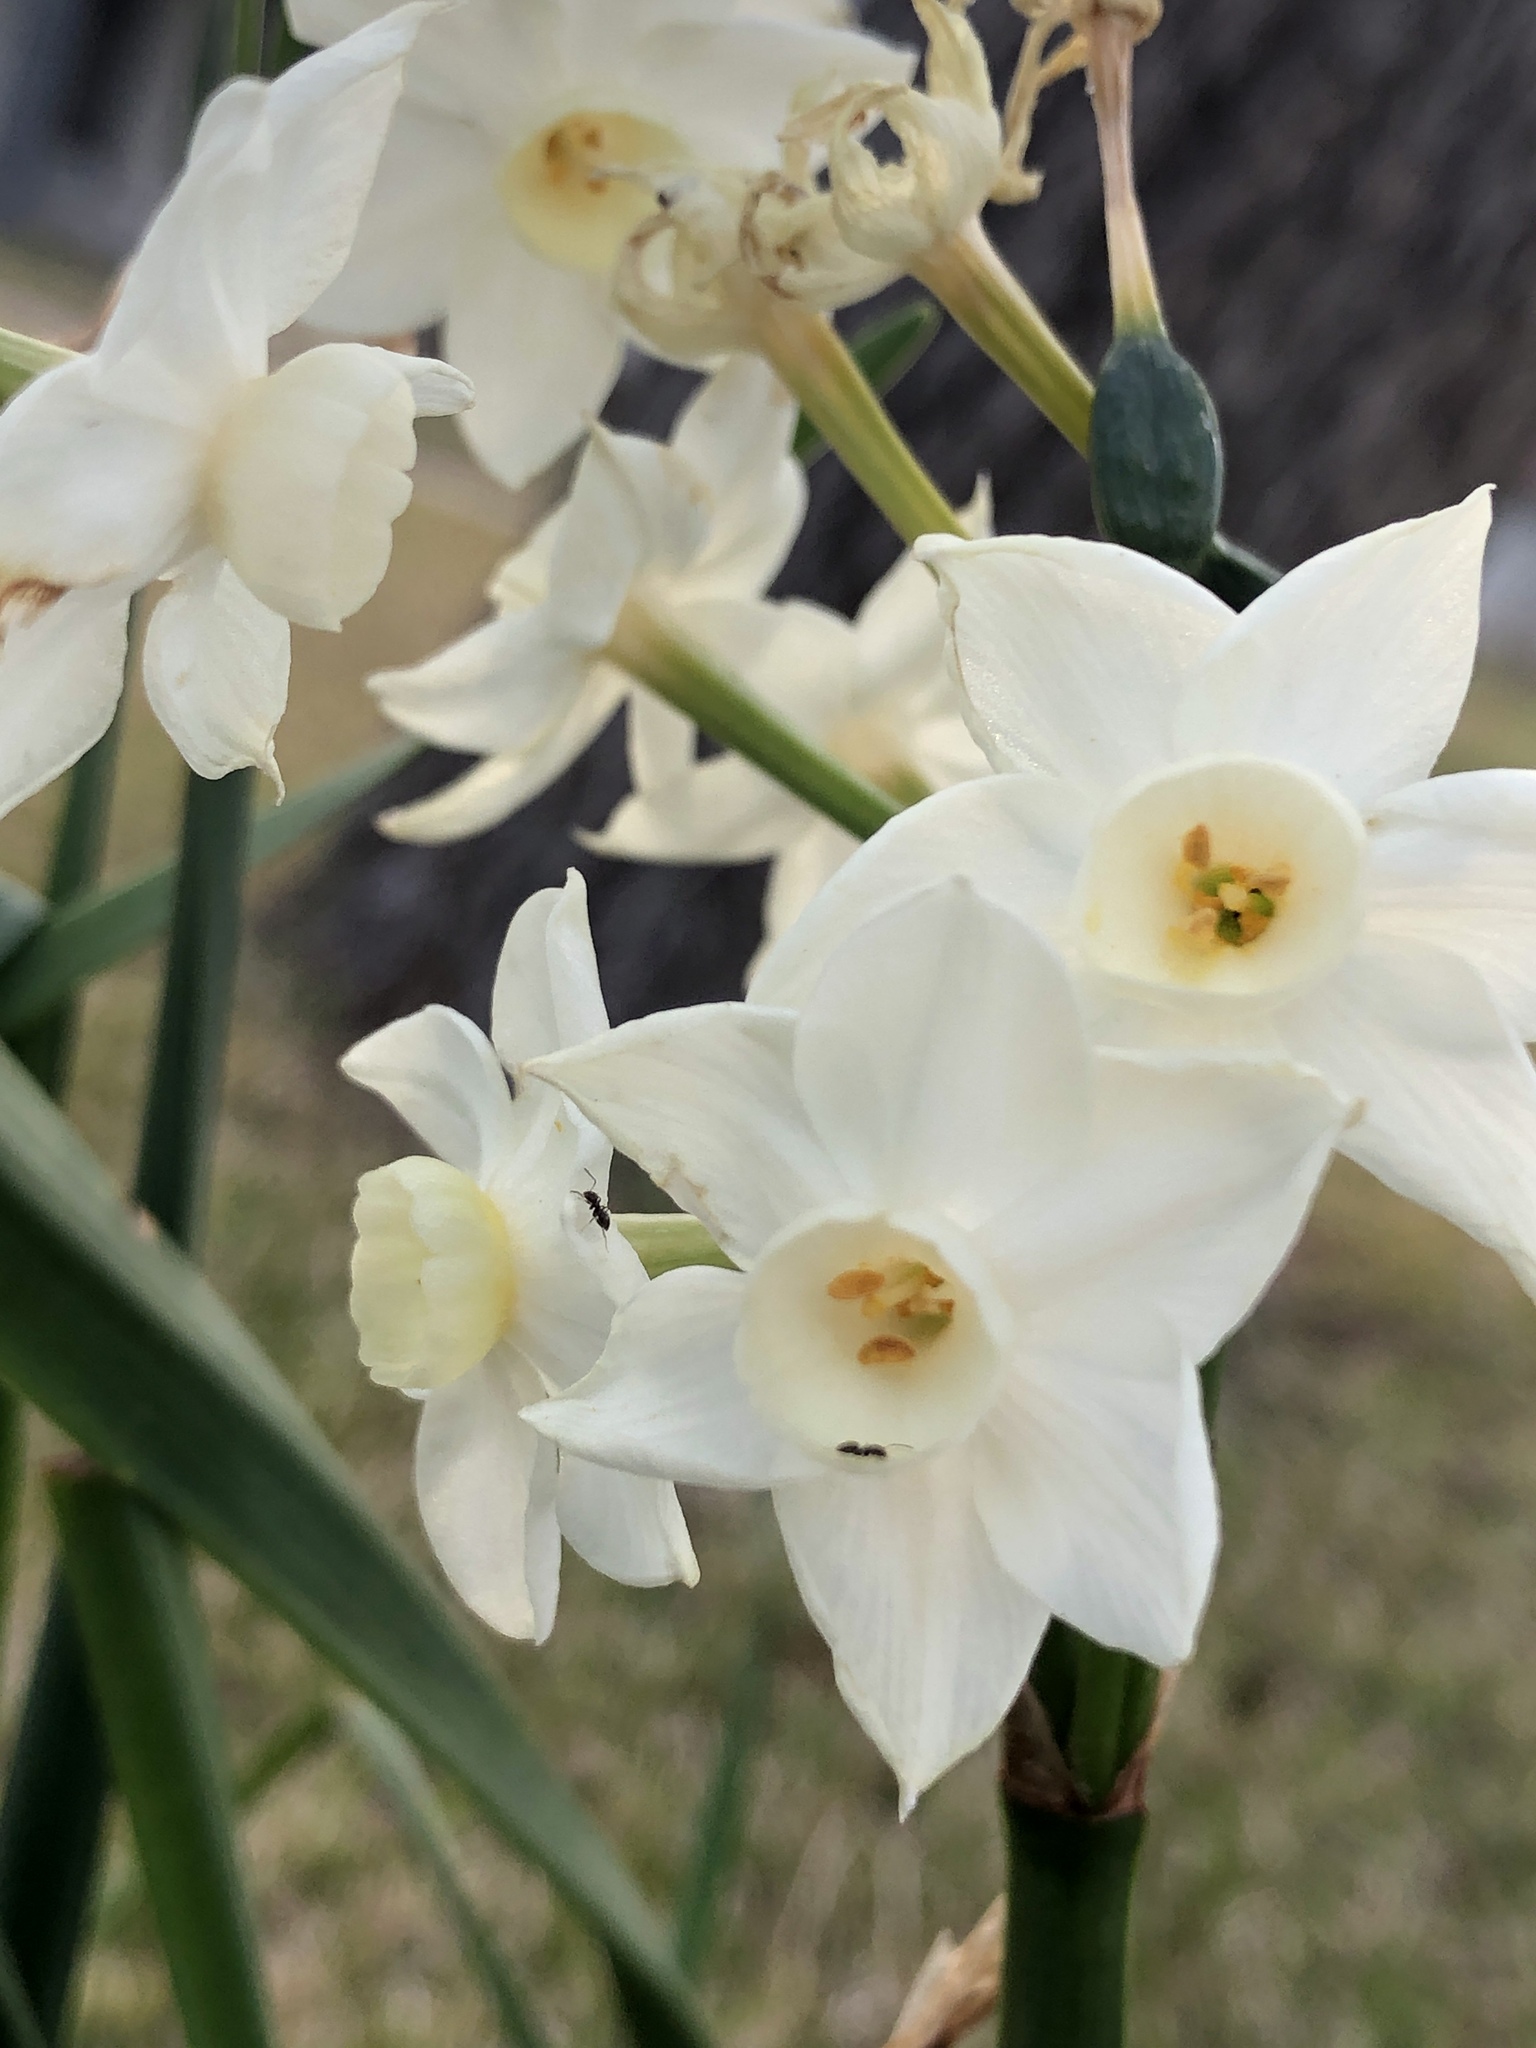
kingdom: Plantae
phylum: Tracheophyta
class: Liliopsida
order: Asparagales
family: Amaryllidaceae
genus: Narcissus
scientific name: Narcissus papyraceus
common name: Paper-white daffodil
